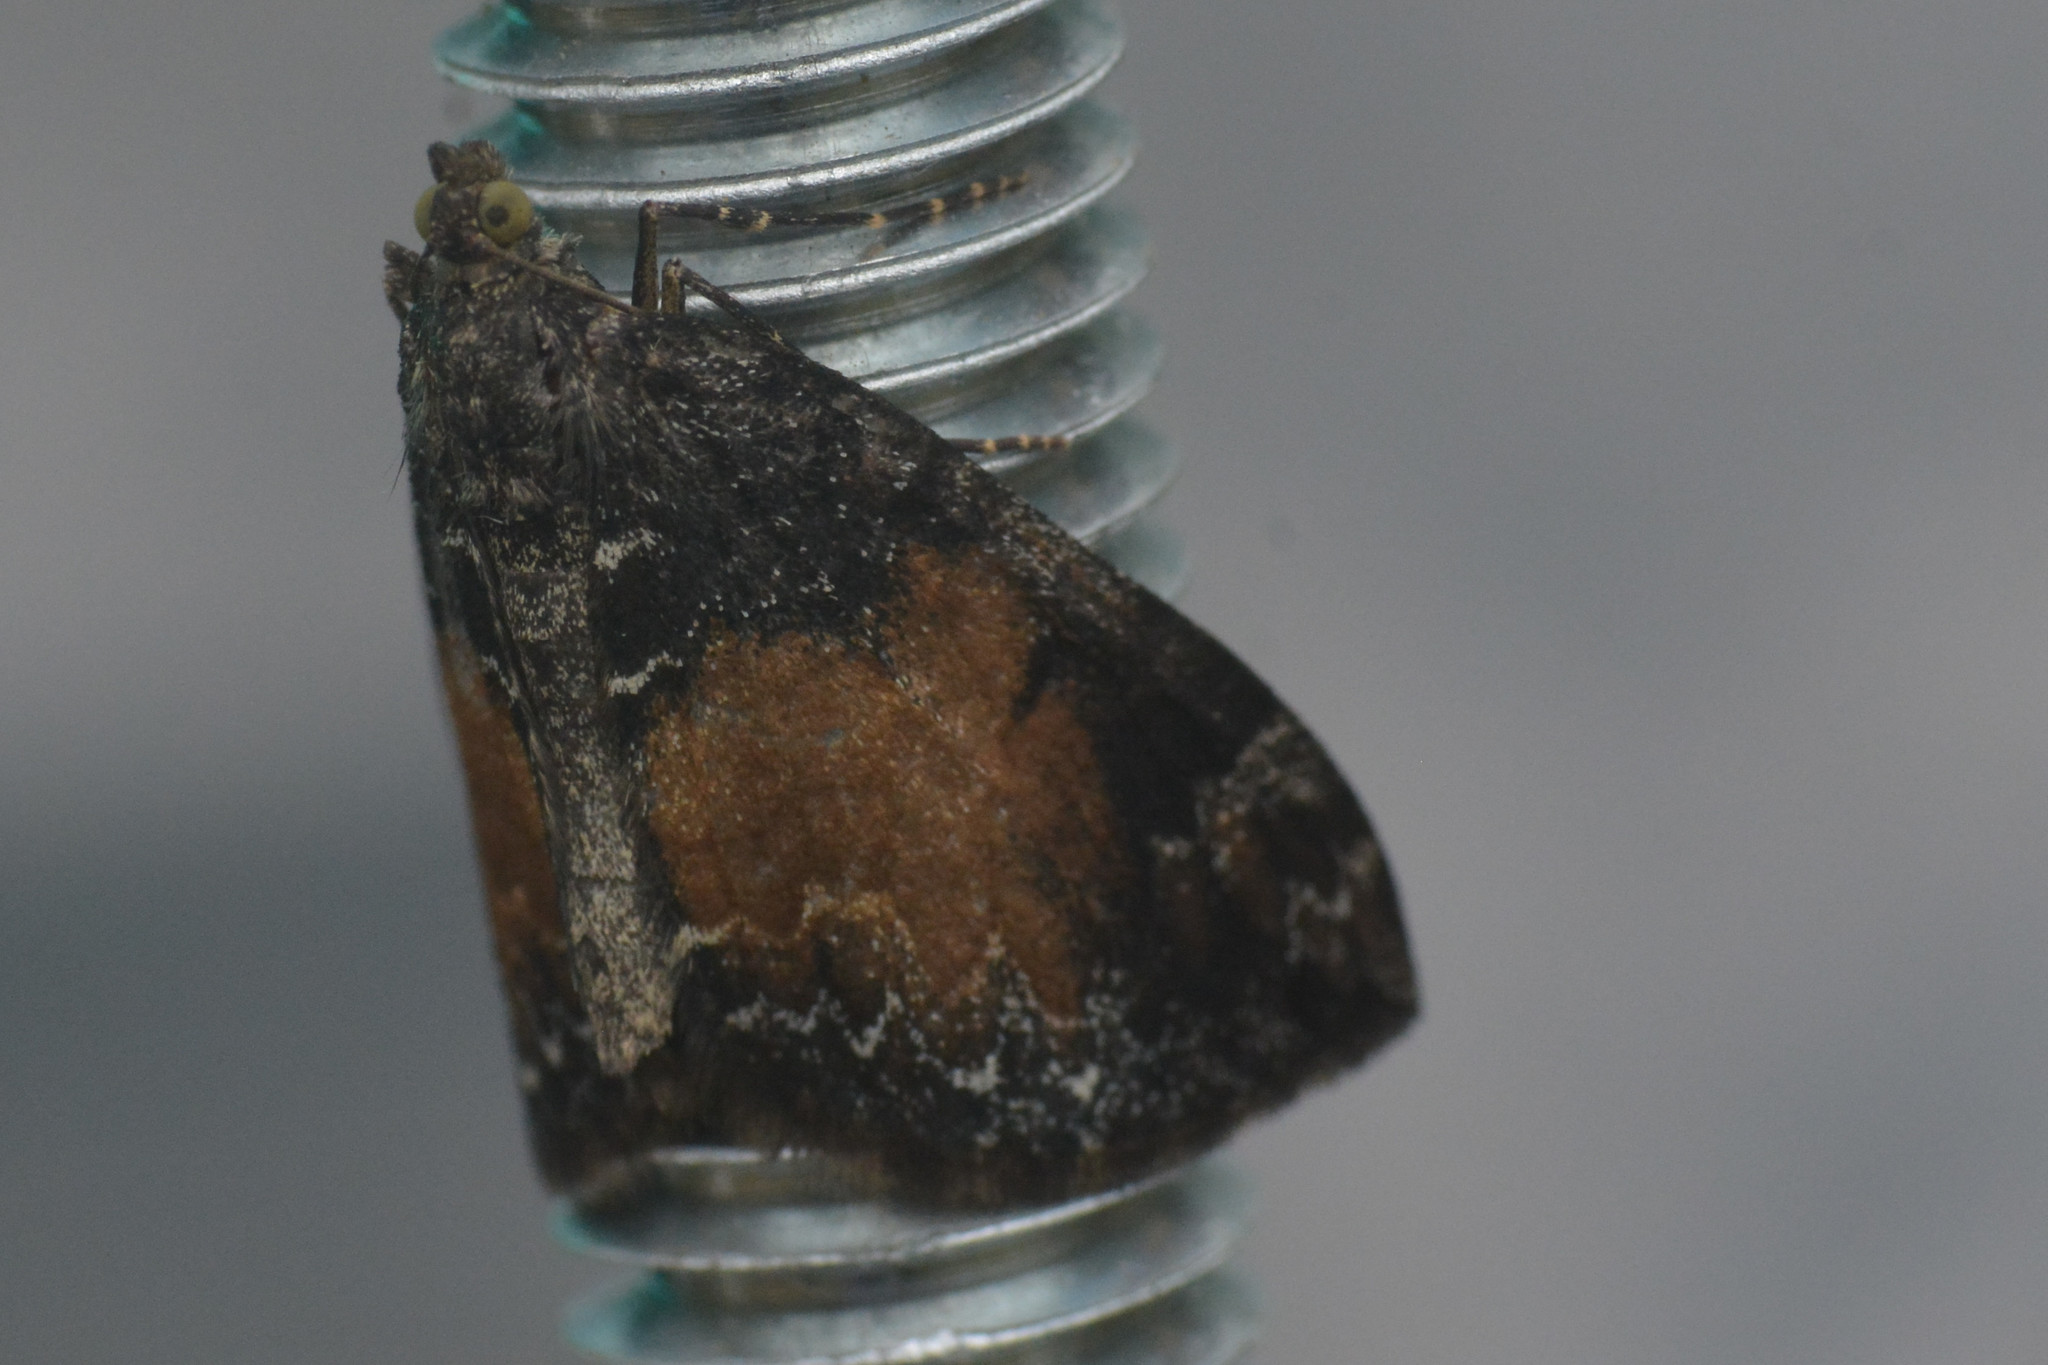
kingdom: Animalia
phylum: Arthropoda
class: Insecta
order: Lepidoptera
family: Geometridae
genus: Dysstroma
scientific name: Dysstroma truncata
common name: Common marbled carpet
